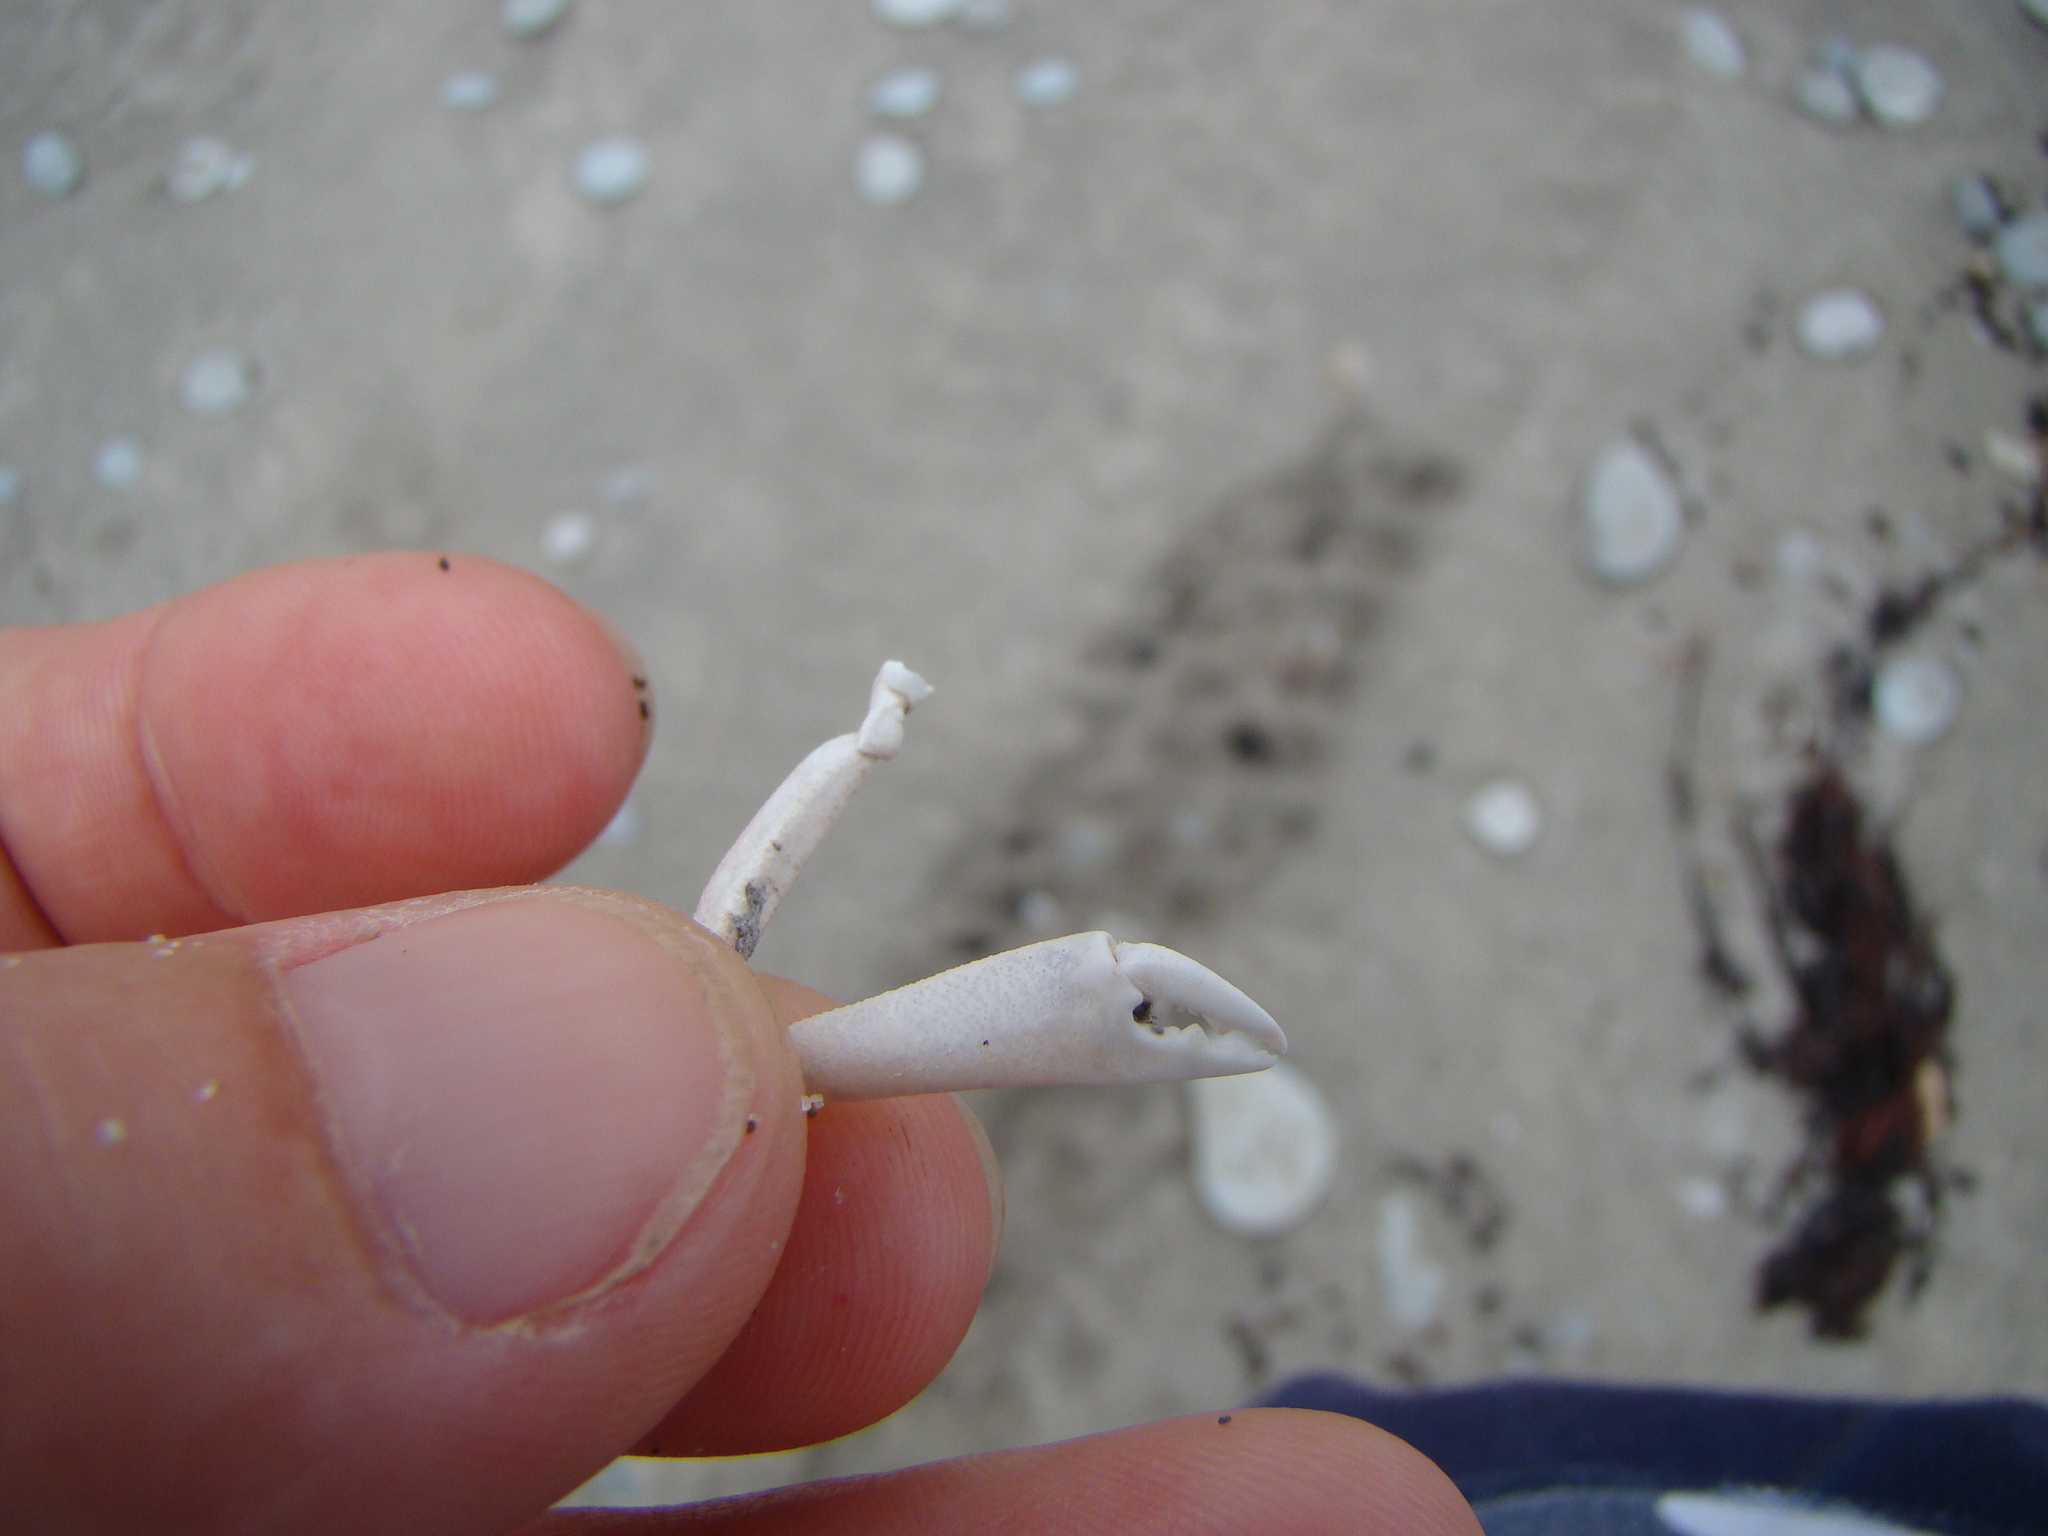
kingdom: Animalia
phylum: Arthropoda
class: Malacostraca
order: Decapoda
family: Goneplacidae
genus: Neommatocarcinus
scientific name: Neommatocarcinus huttoni
